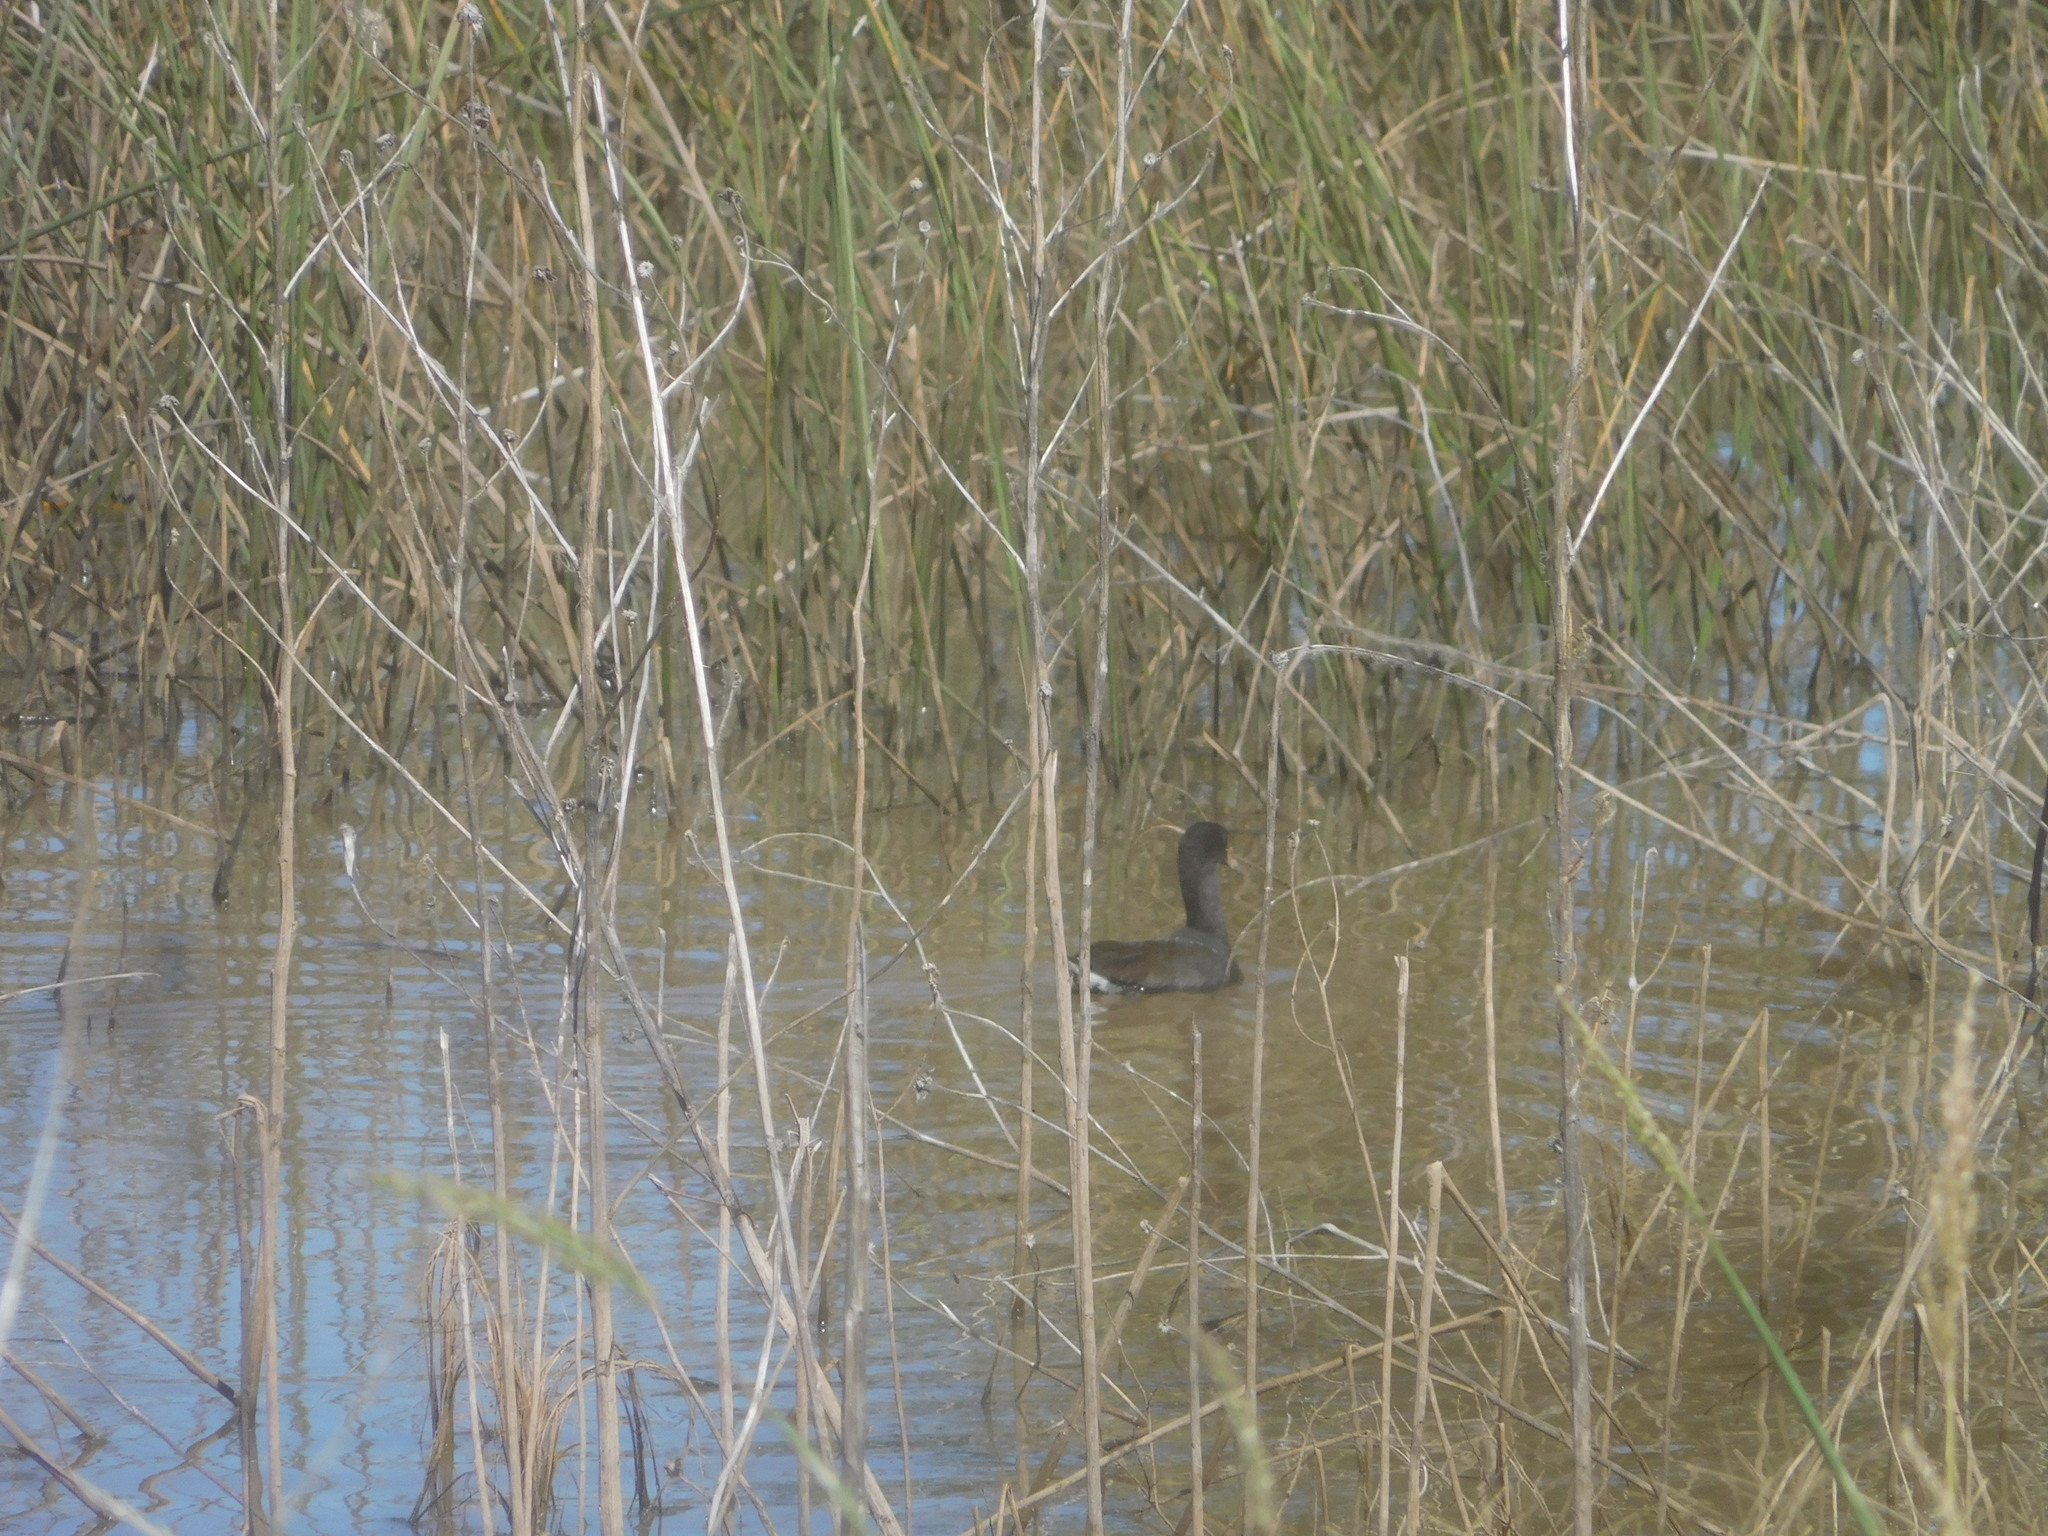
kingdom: Animalia
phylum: Chordata
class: Aves
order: Gruiformes
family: Rallidae
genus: Gallinula
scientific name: Gallinula chloropus
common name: Common moorhen
